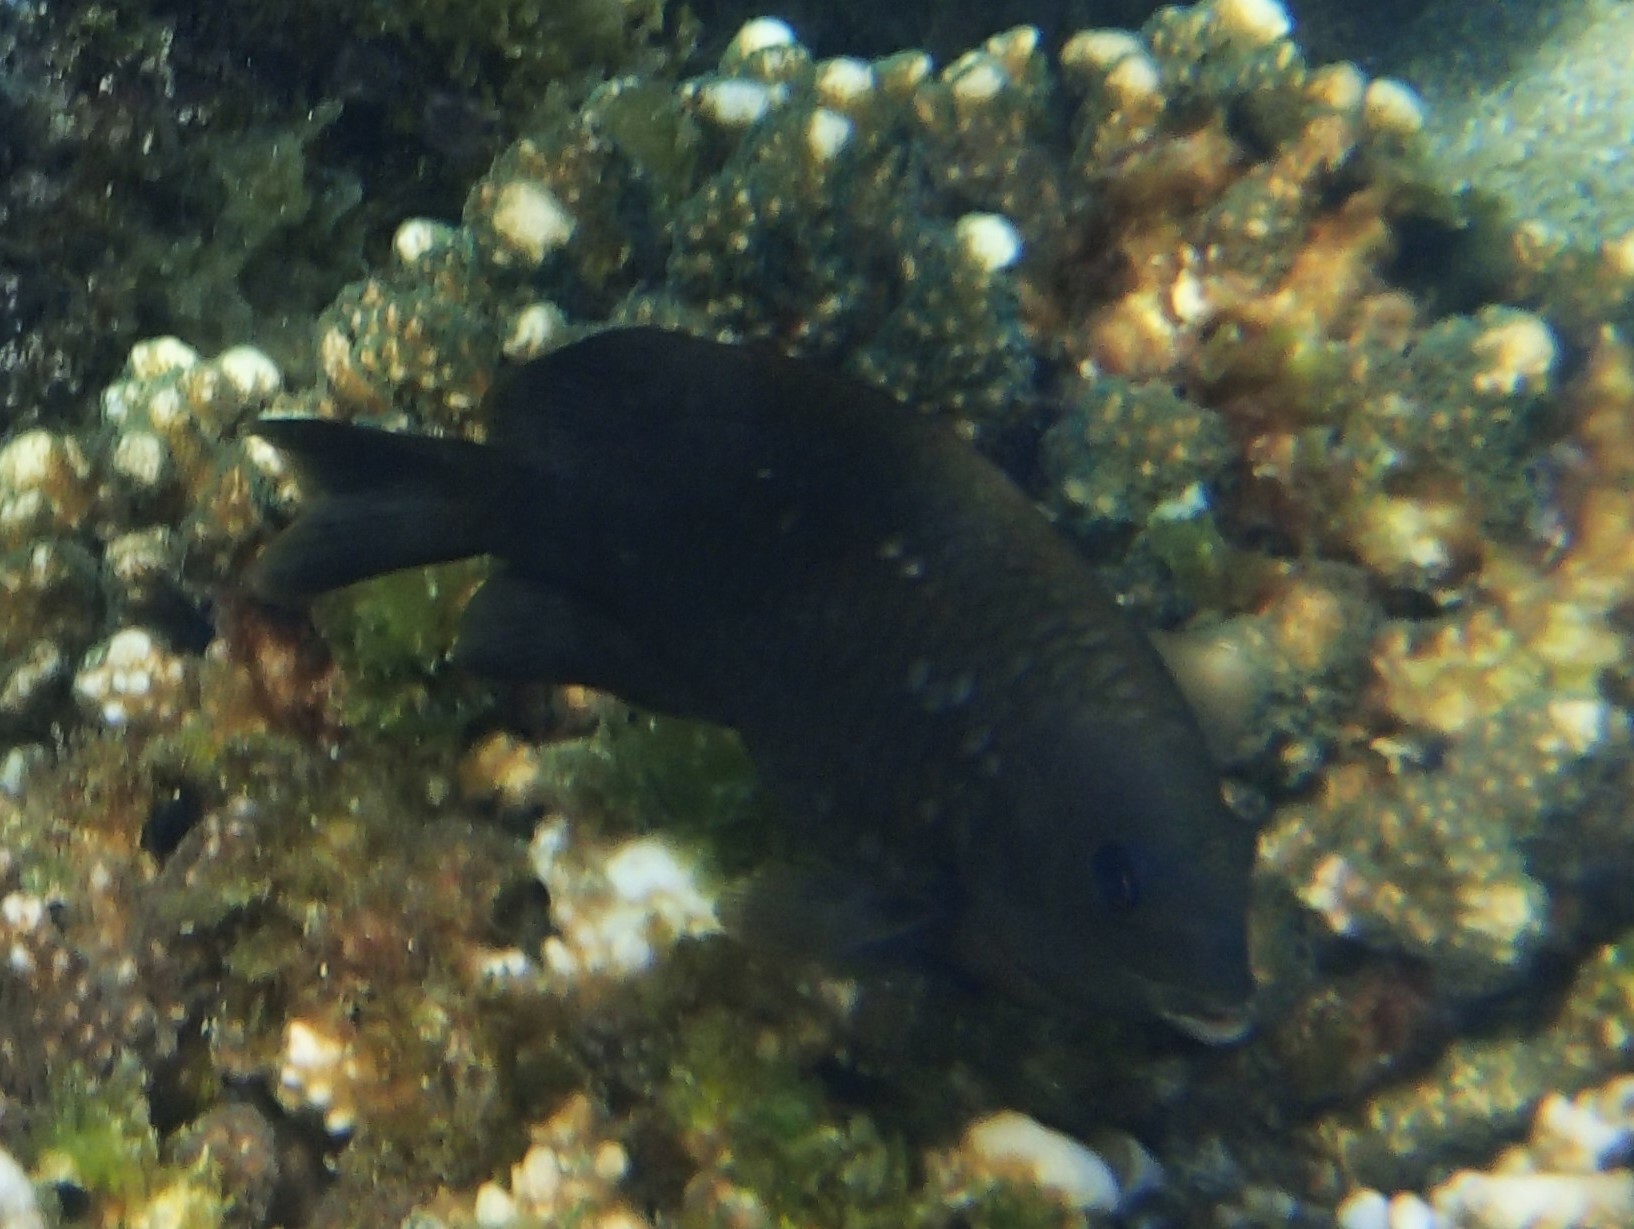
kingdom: Animalia
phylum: Chordata
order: Perciformes
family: Pomacentridae
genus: Stegastes
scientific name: Stegastes rectifraenum
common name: Cortez damselfish
